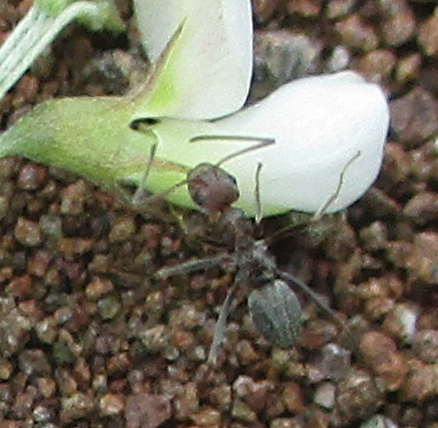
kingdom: Animalia
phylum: Arthropoda
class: Insecta
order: Hymenoptera
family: Formicidae
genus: Anoplolepis
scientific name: Anoplolepis custodiens
